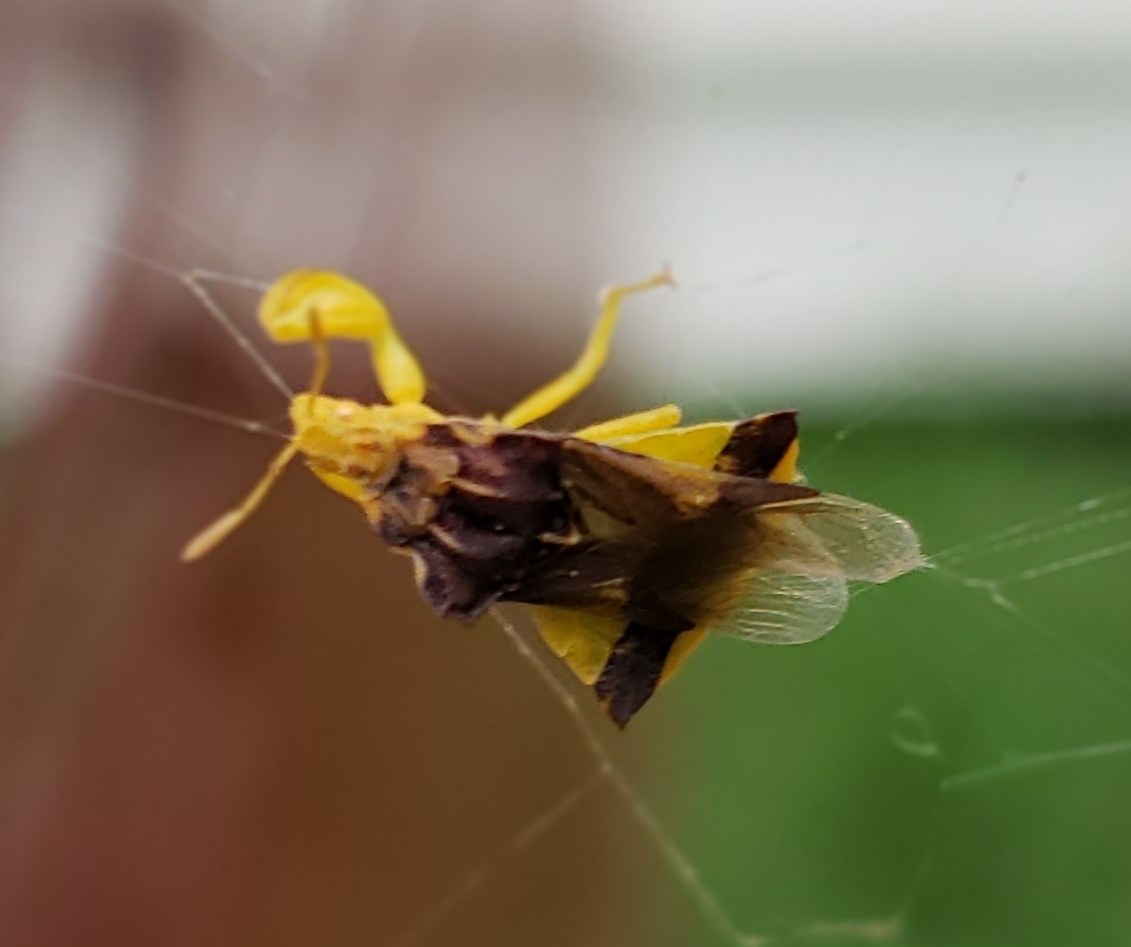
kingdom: Animalia
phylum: Arthropoda
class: Insecta
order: Hemiptera
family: Reduviidae
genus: Phymata
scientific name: Phymata pennsylvanica
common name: Pennsylvania ambush bug
